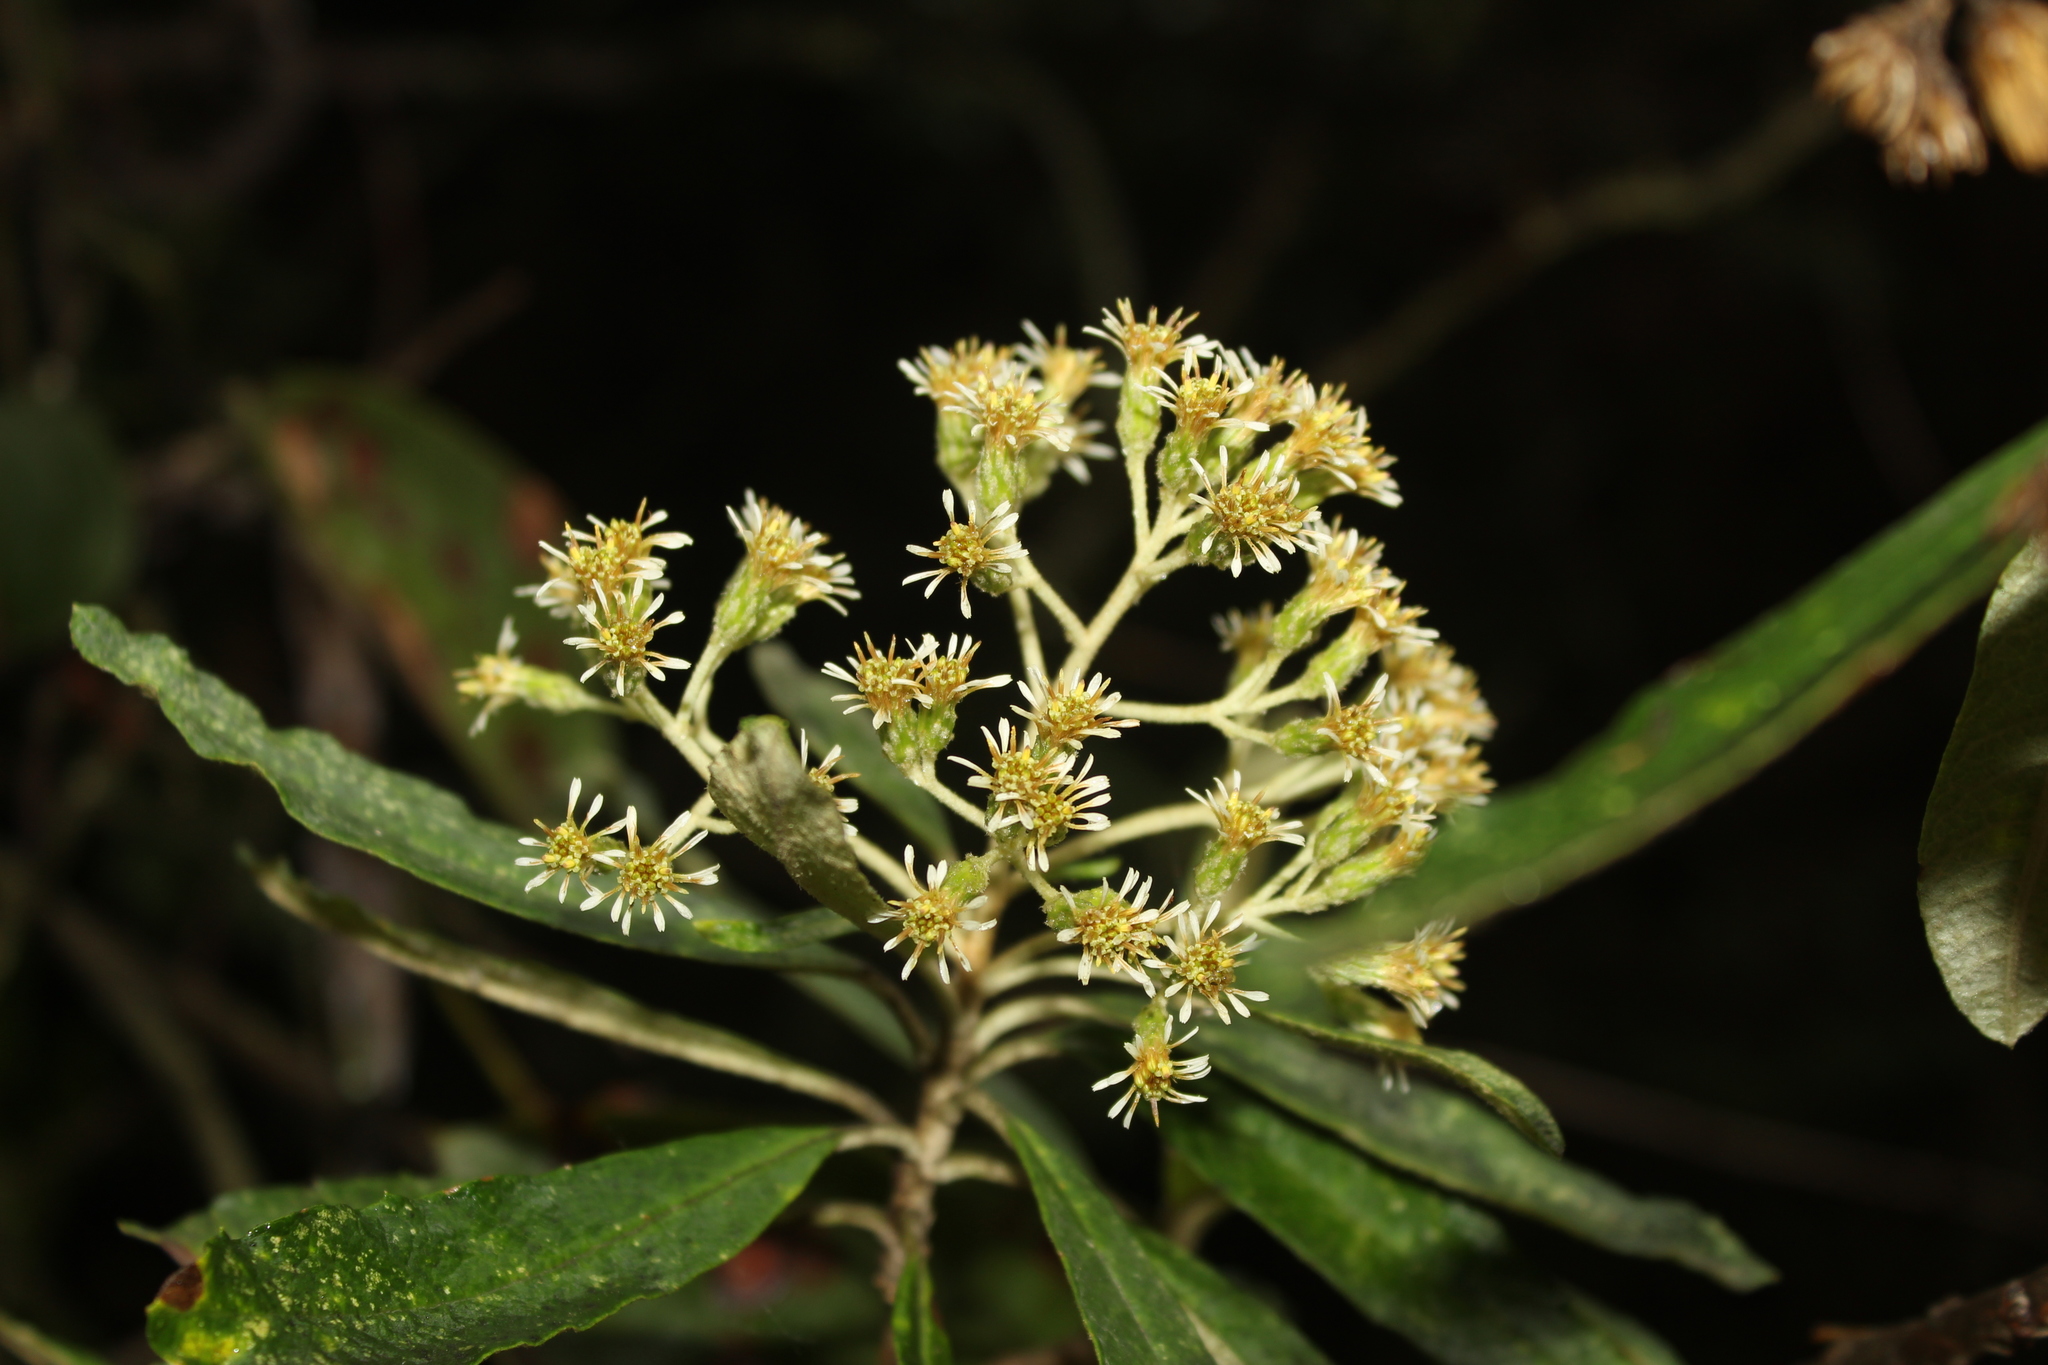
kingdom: Plantae
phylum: Tracheophyta
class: Magnoliopsida
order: Asterales
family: Asteraceae
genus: Linochilus
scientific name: Linochilus tenuifolius
